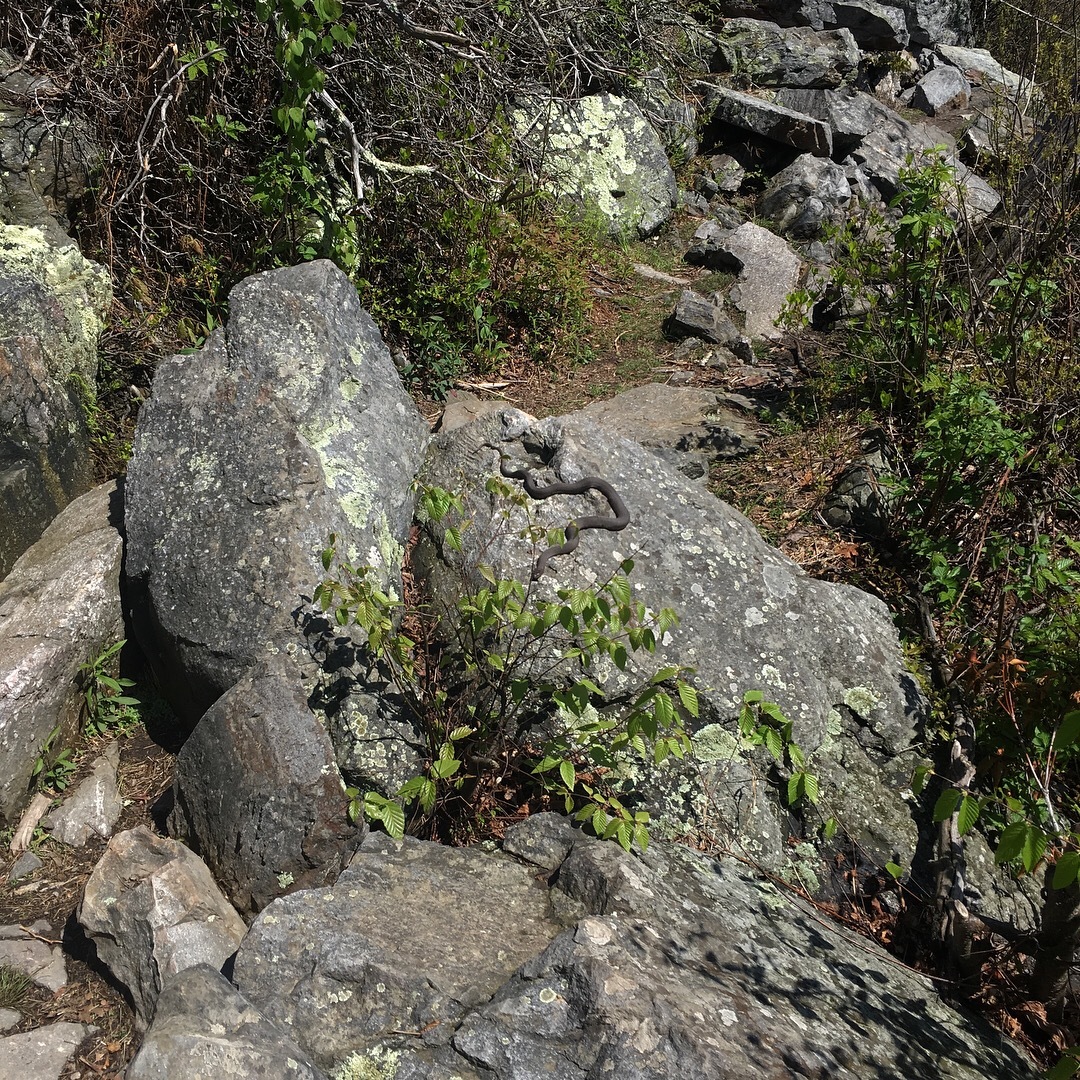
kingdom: Animalia
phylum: Chordata
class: Squamata
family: Colubridae
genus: Nerodia
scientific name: Nerodia sipedon
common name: Northern water snake
